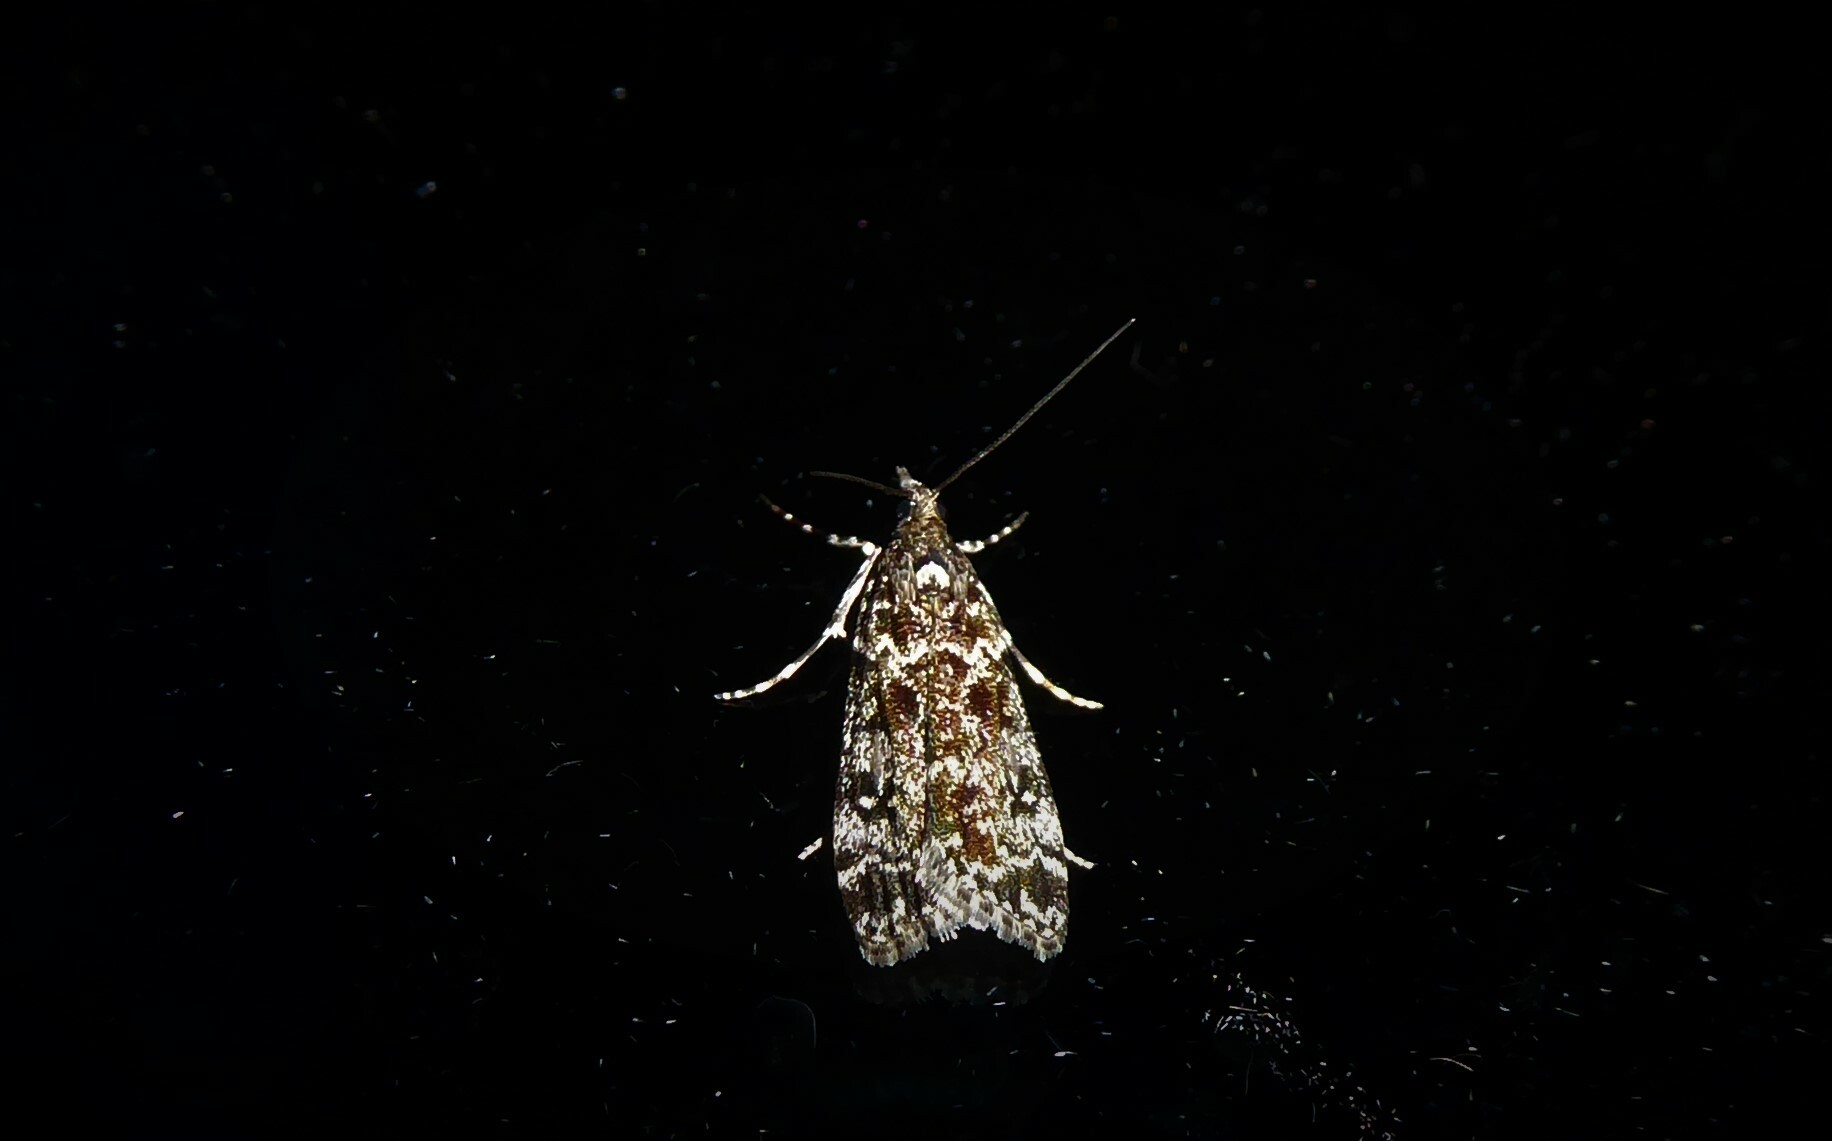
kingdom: Animalia
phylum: Arthropoda
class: Insecta
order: Lepidoptera
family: Crambidae
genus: Eudonia
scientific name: Eudonia philerga
